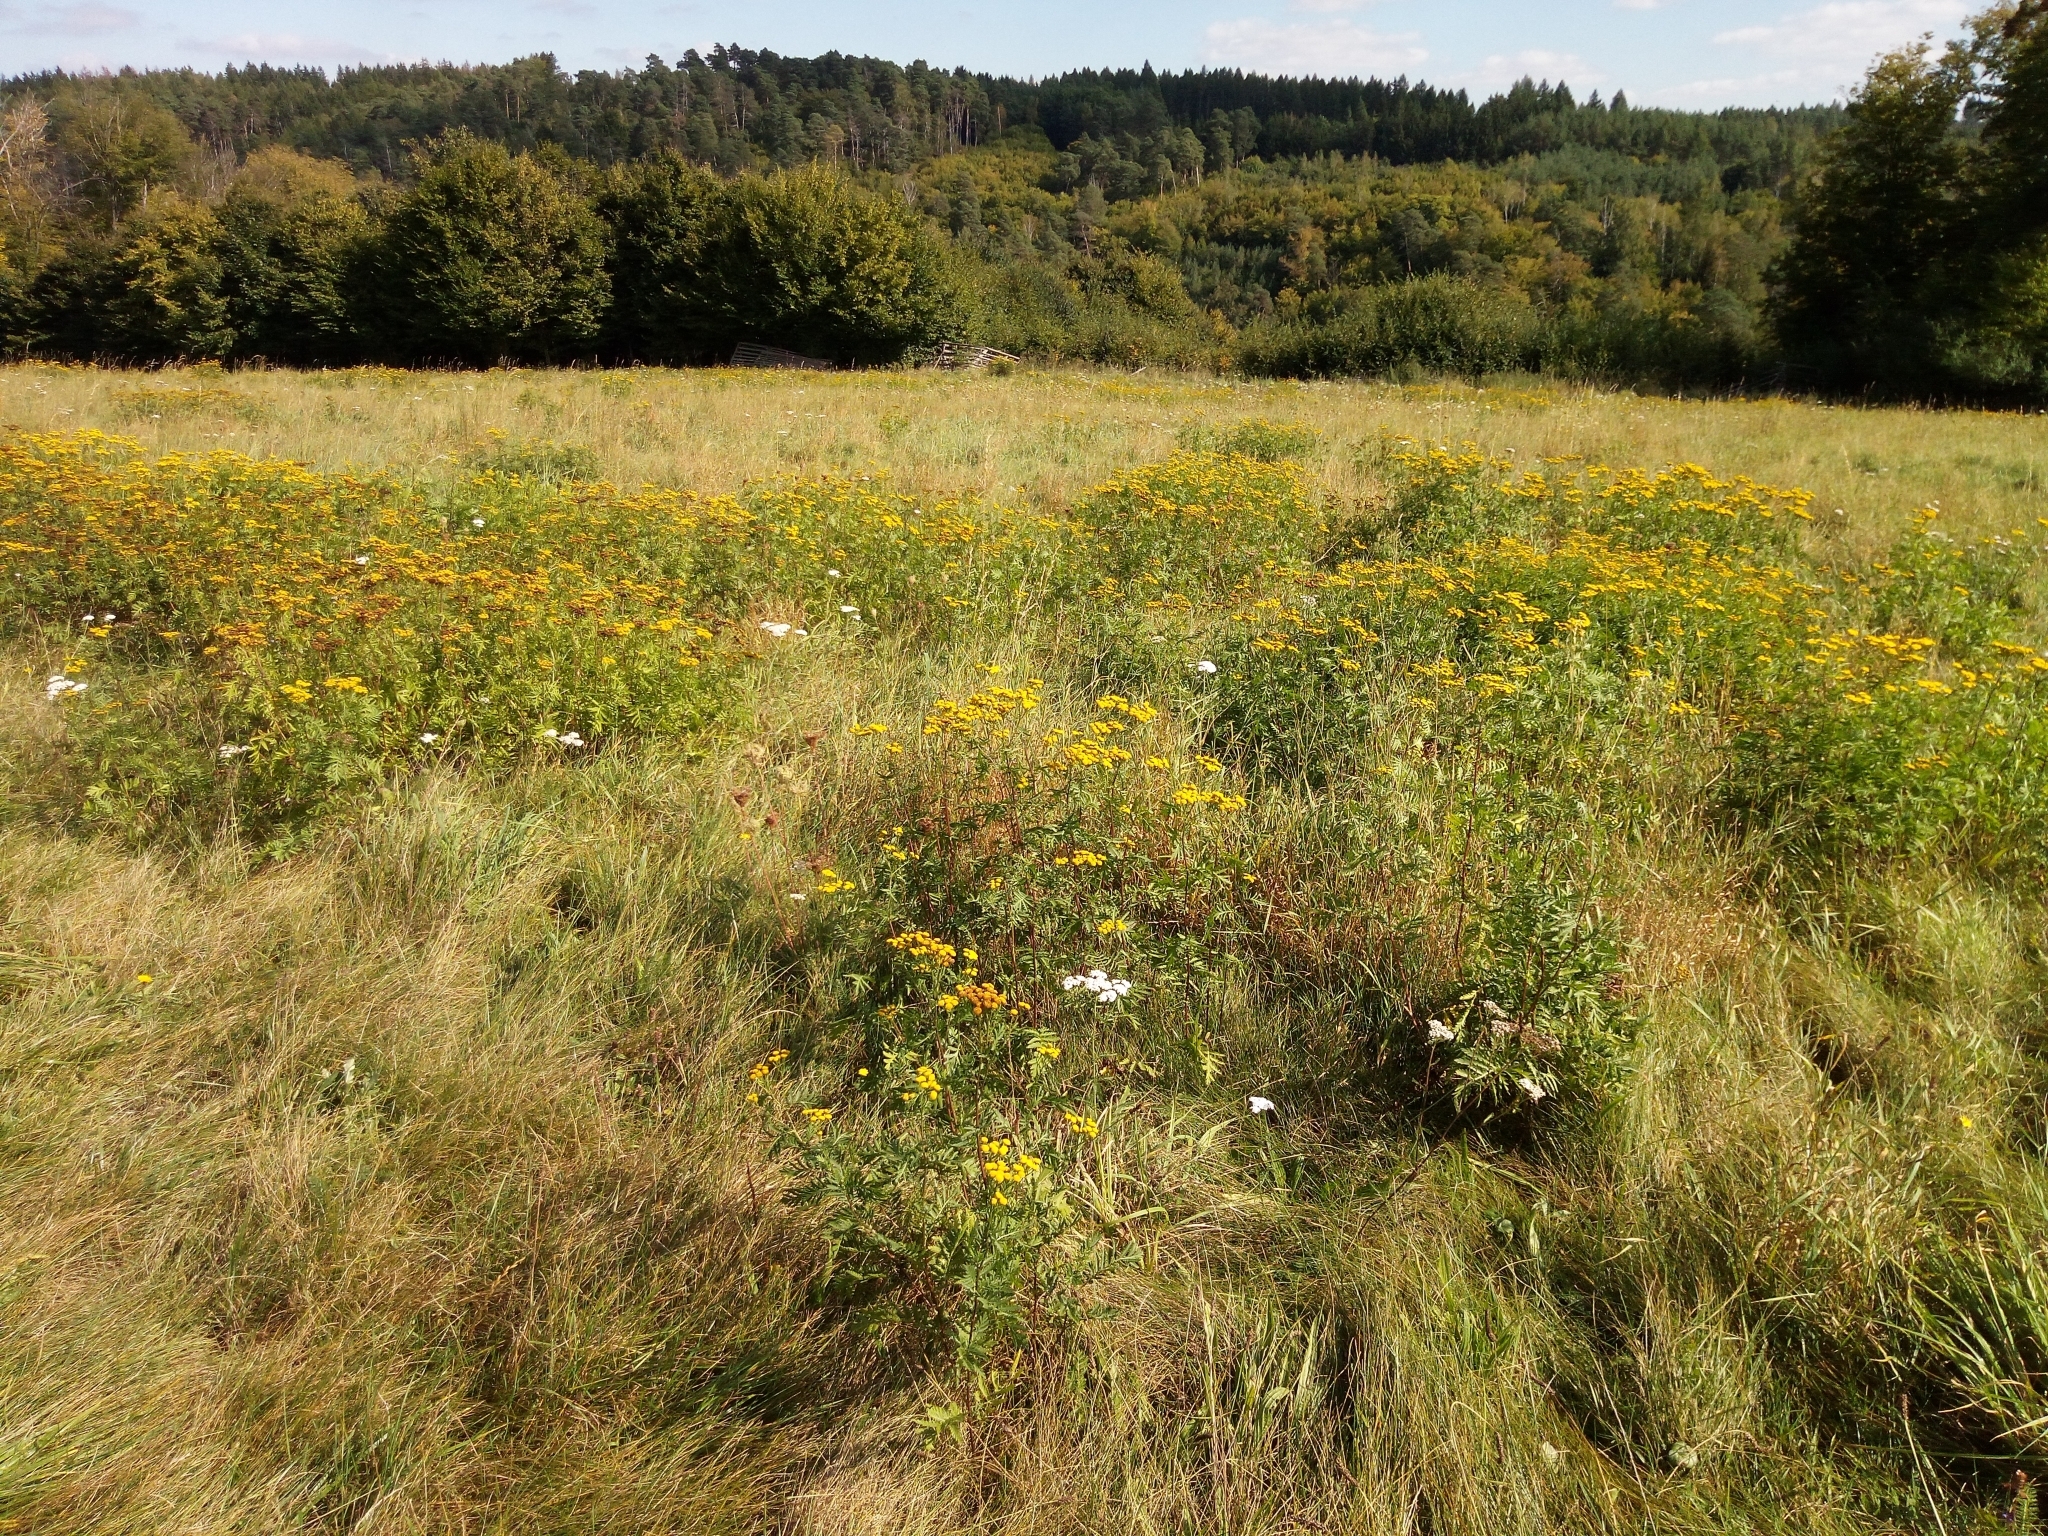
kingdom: Plantae
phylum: Tracheophyta
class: Magnoliopsida
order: Asterales
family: Asteraceae
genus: Tanacetum
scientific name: Tanacetum vulgare
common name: Common tansy
